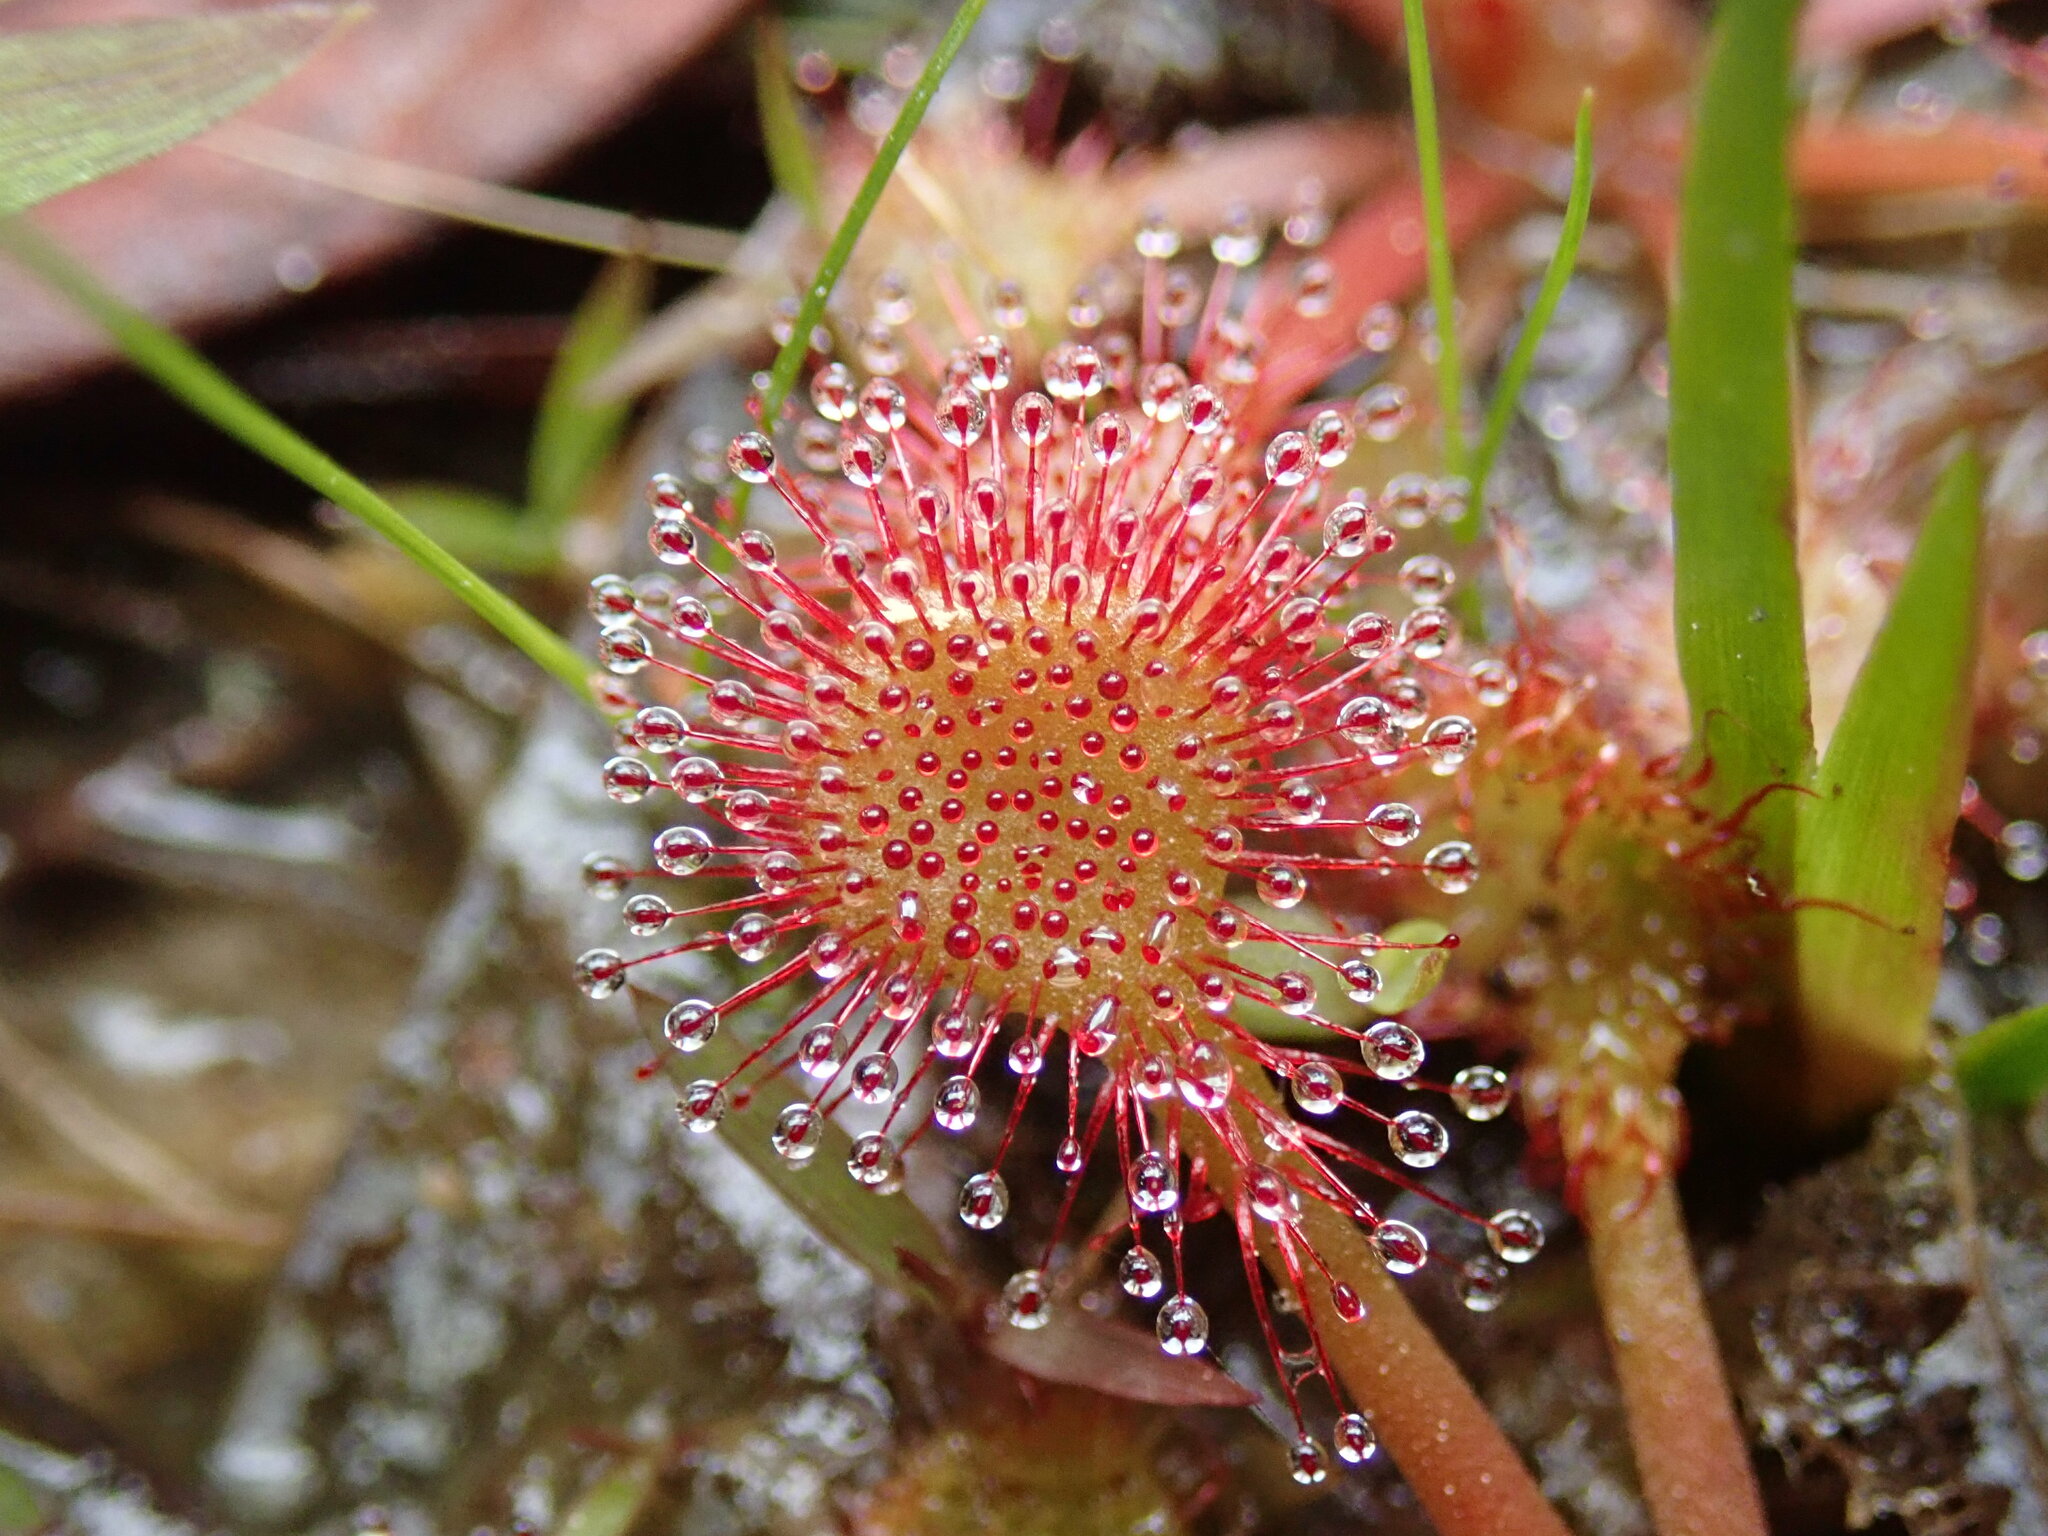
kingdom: Plantae
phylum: Tracheophyta
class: Magnoliopsida
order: Caryophyllales
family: Droseraceae
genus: Drosera
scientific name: Drosera capillaris
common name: Pink sundew
